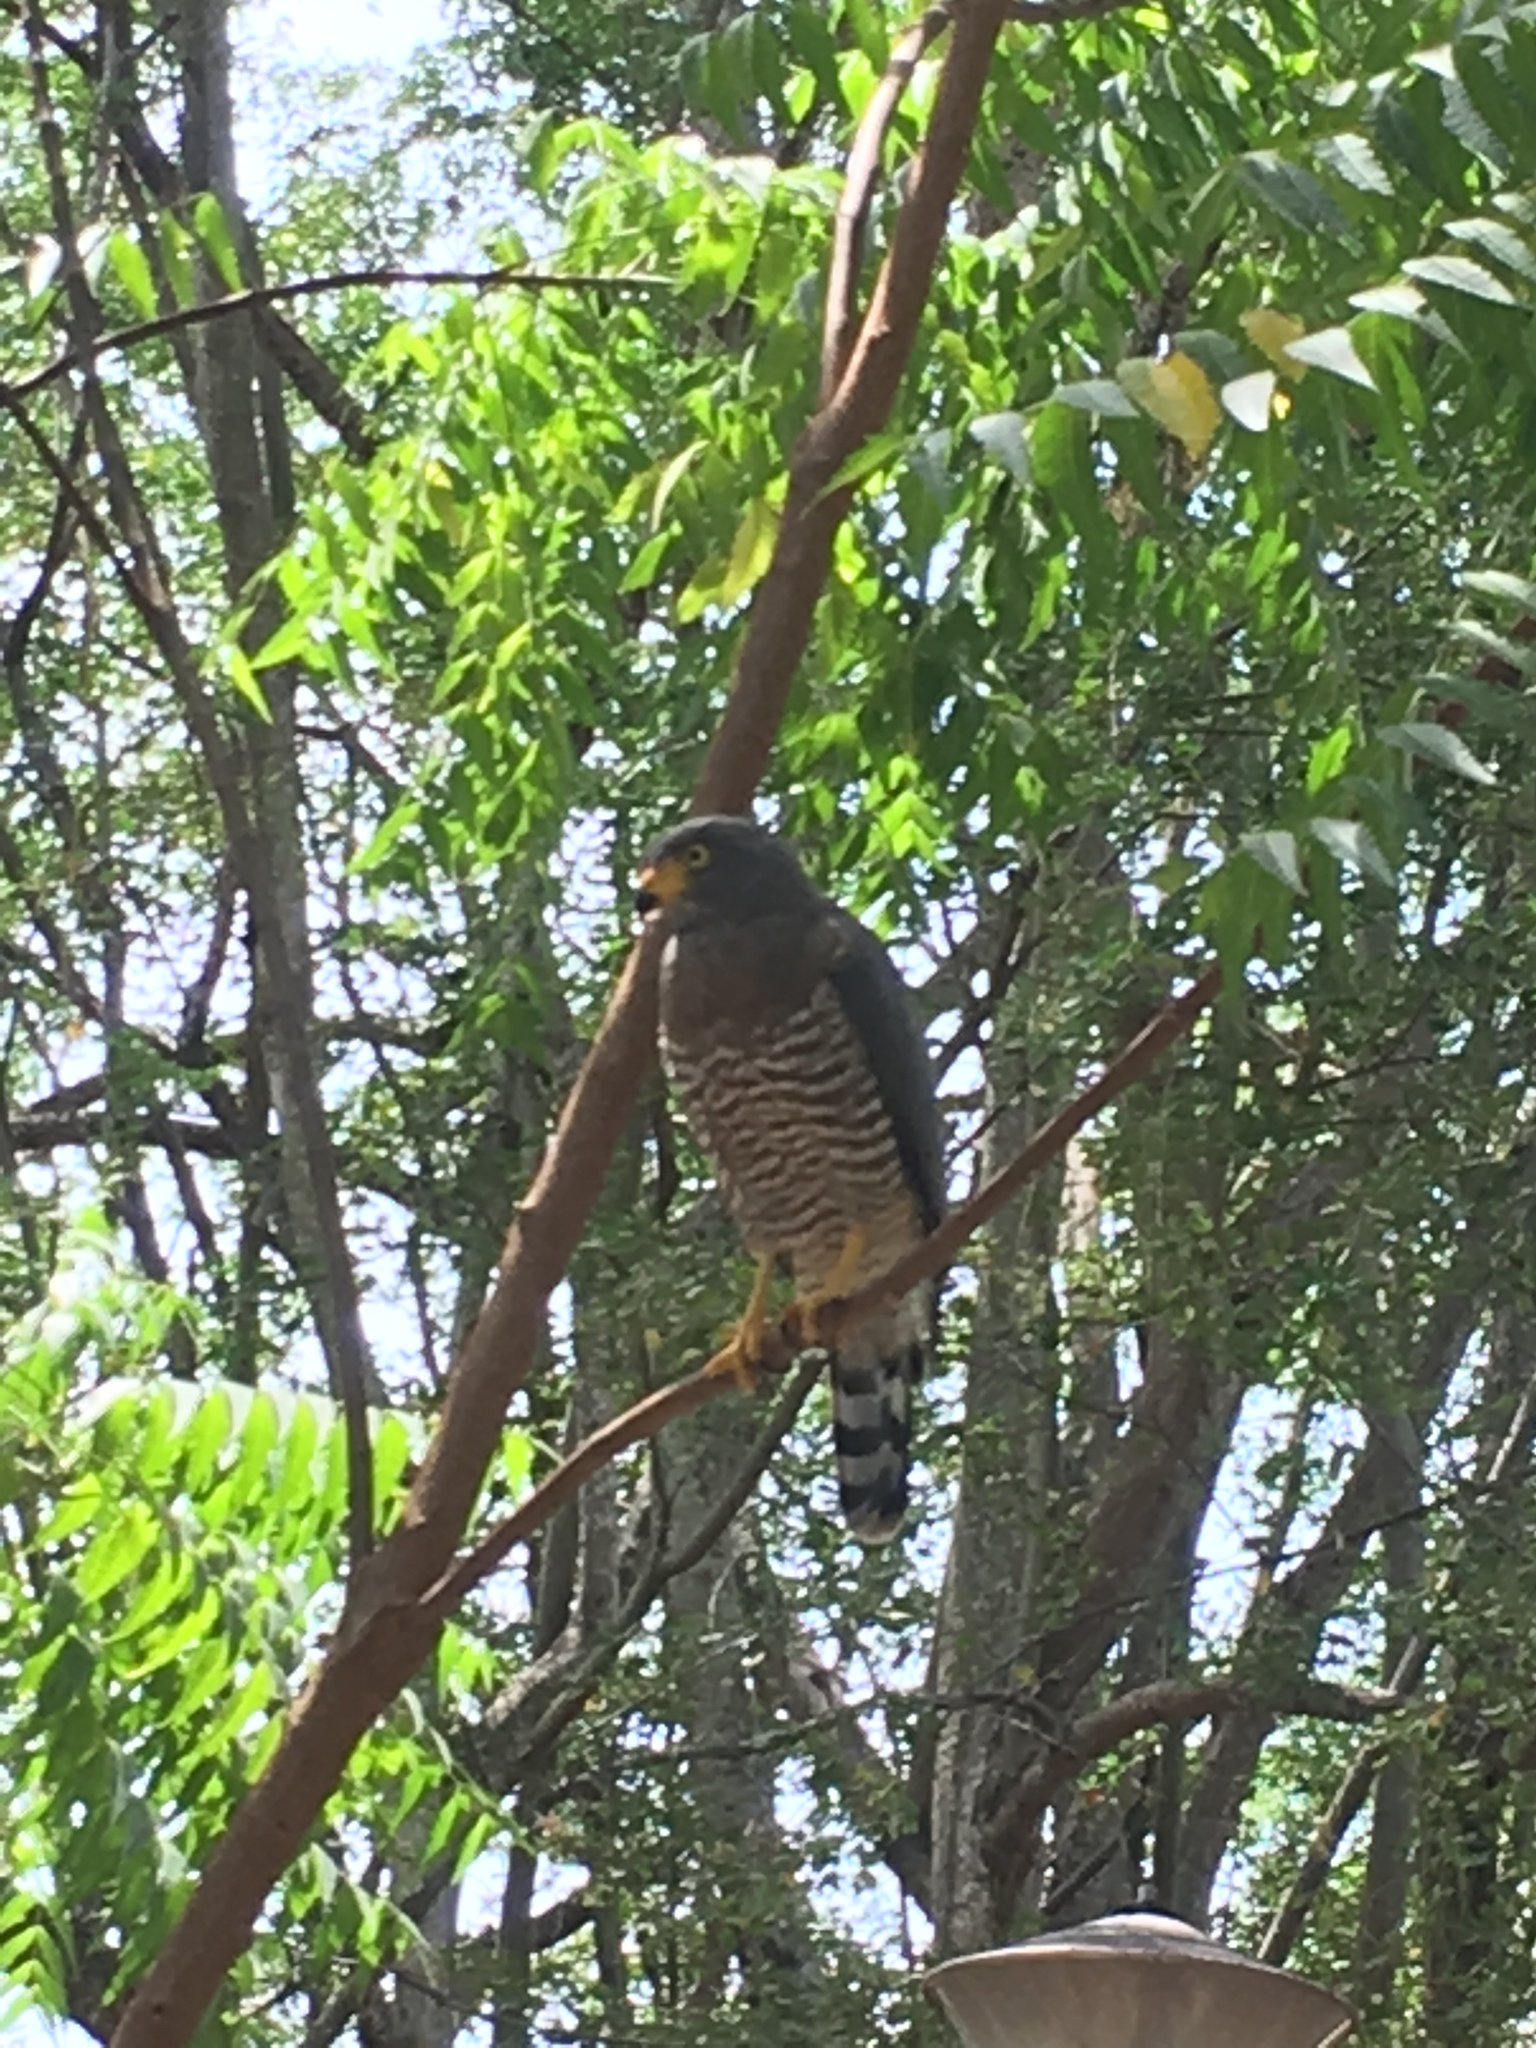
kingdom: Animalia
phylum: Chordata
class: Aves
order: Accipitriformes
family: Accipitridae
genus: Rupornis
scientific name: Rupornis magnirostris
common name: Roadside hawk
